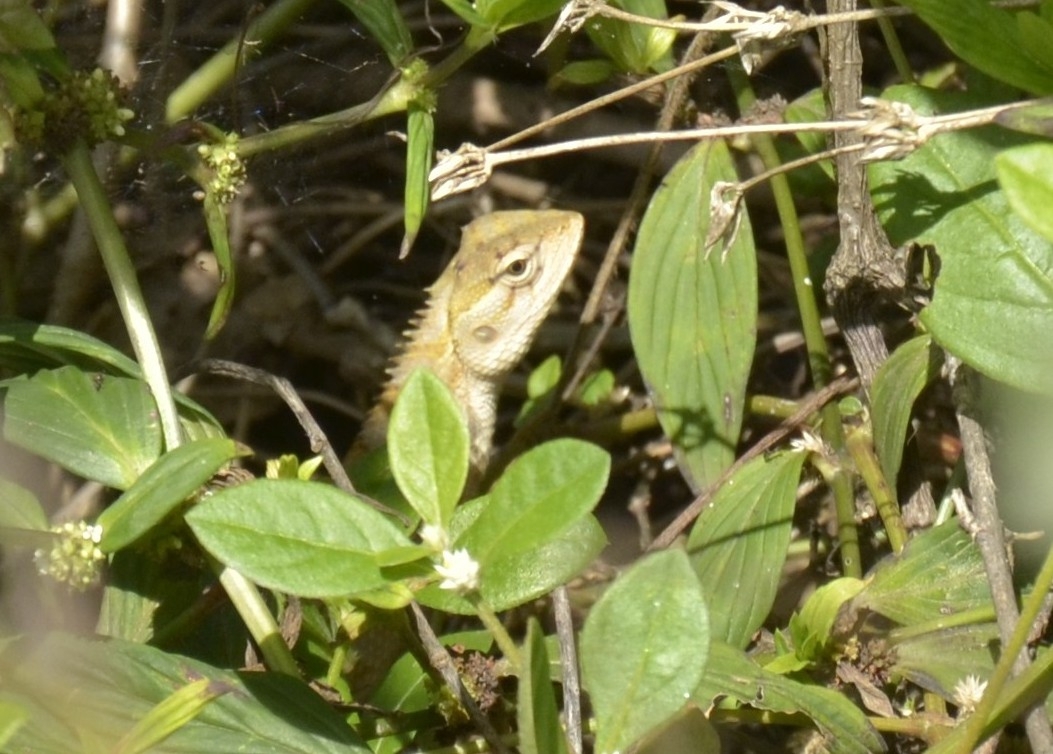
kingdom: Animalia
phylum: Chordata
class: Squamata
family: Agamidae
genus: Calotes
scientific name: Calotes versicolor
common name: Oriental garden lizard
